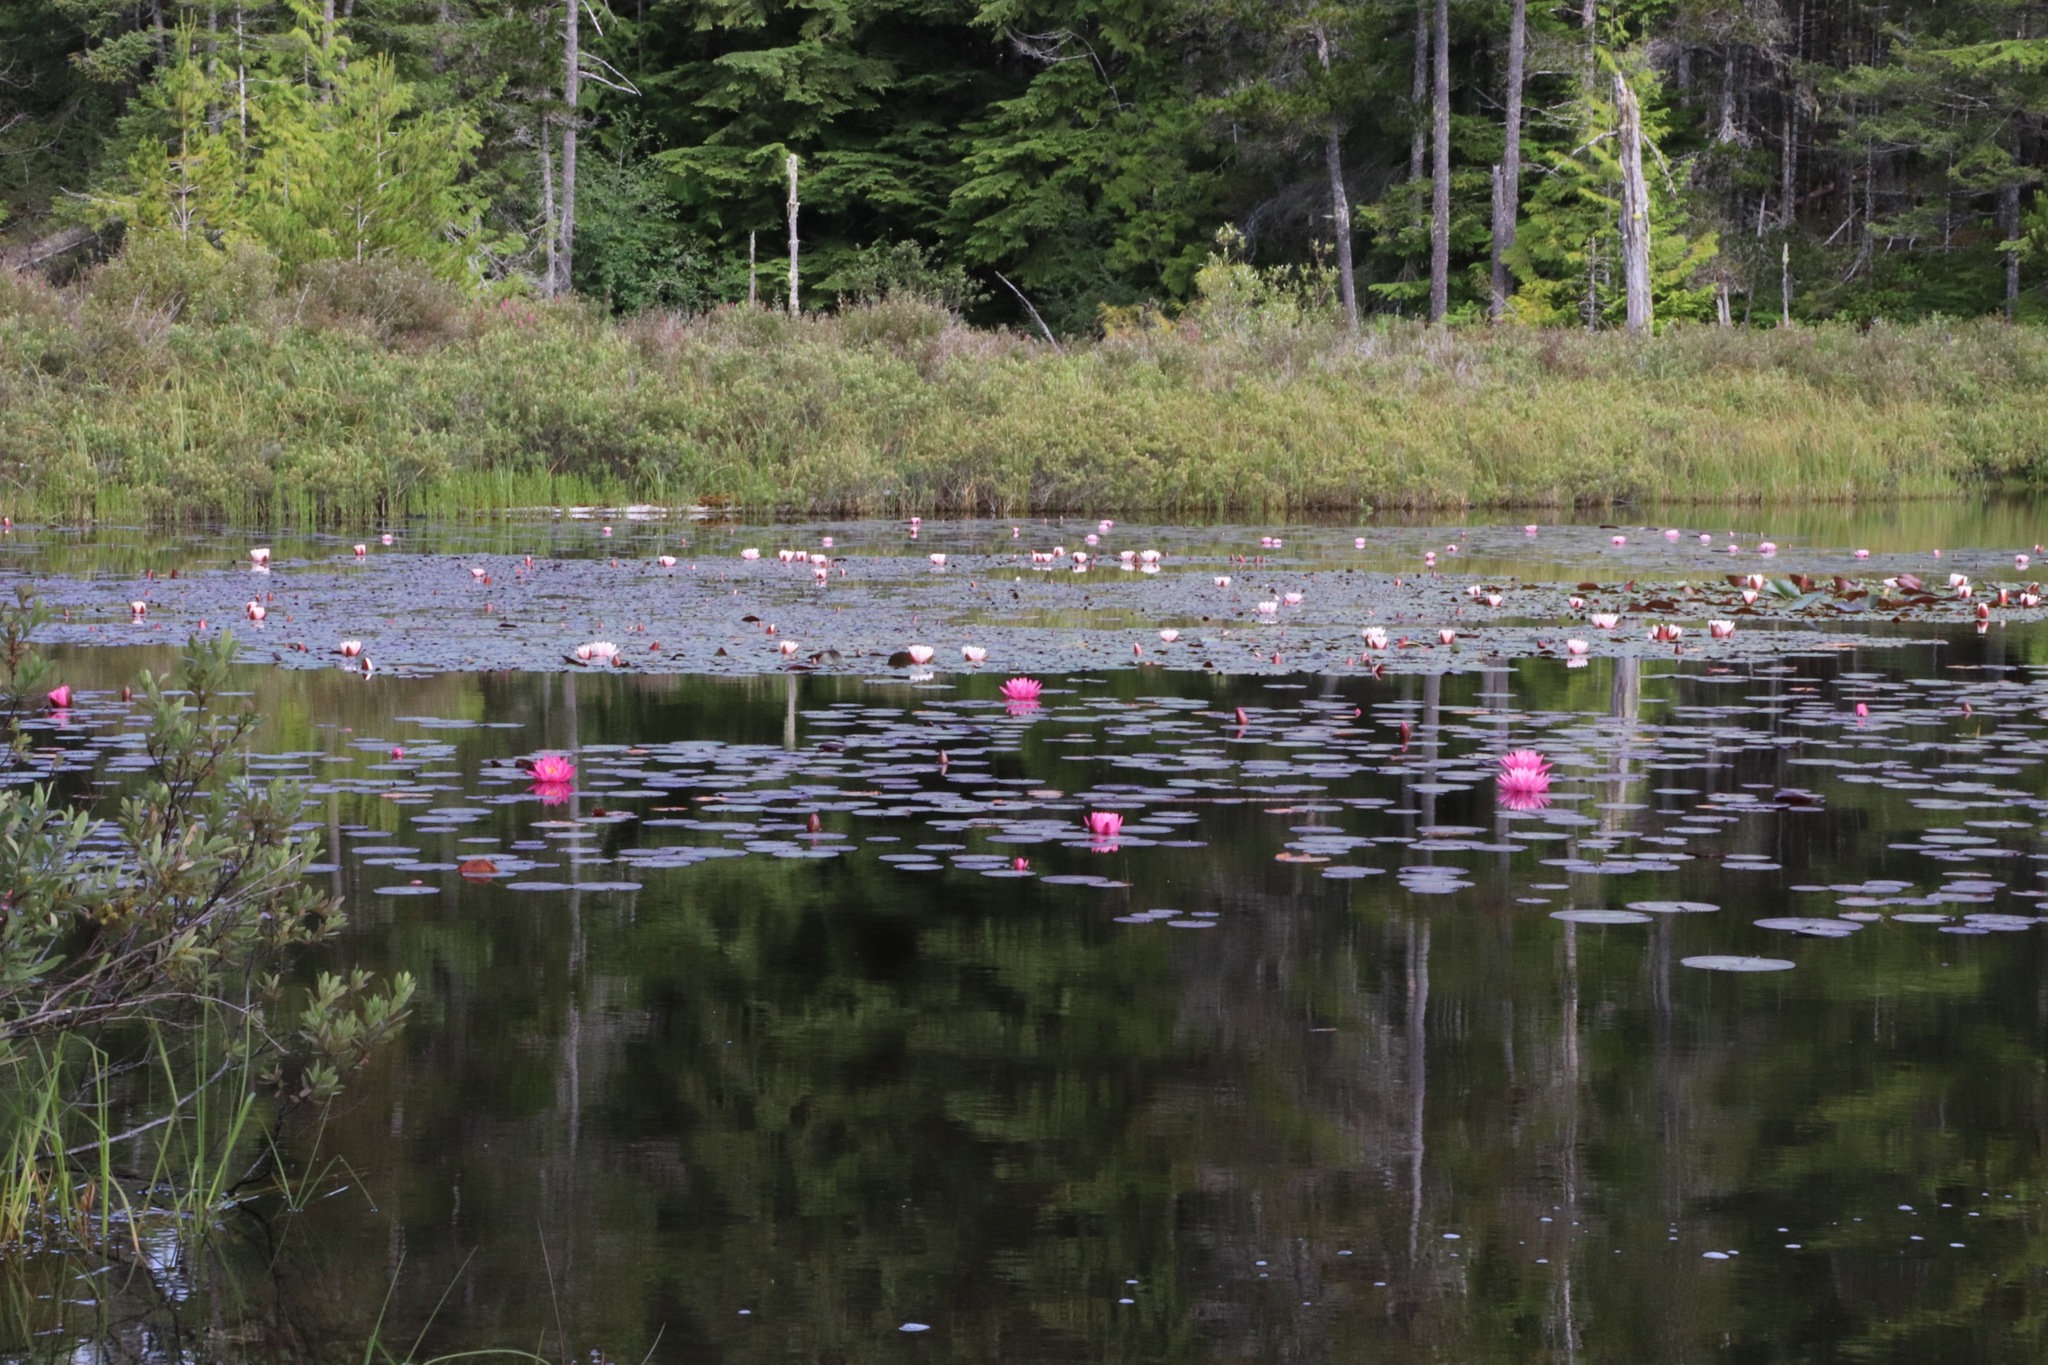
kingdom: Plantae
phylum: Tracheophyta
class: Magnoliopsida
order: Nymphaeales
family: Nymphaeaceae
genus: Nymphaea
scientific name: Nymphaea
